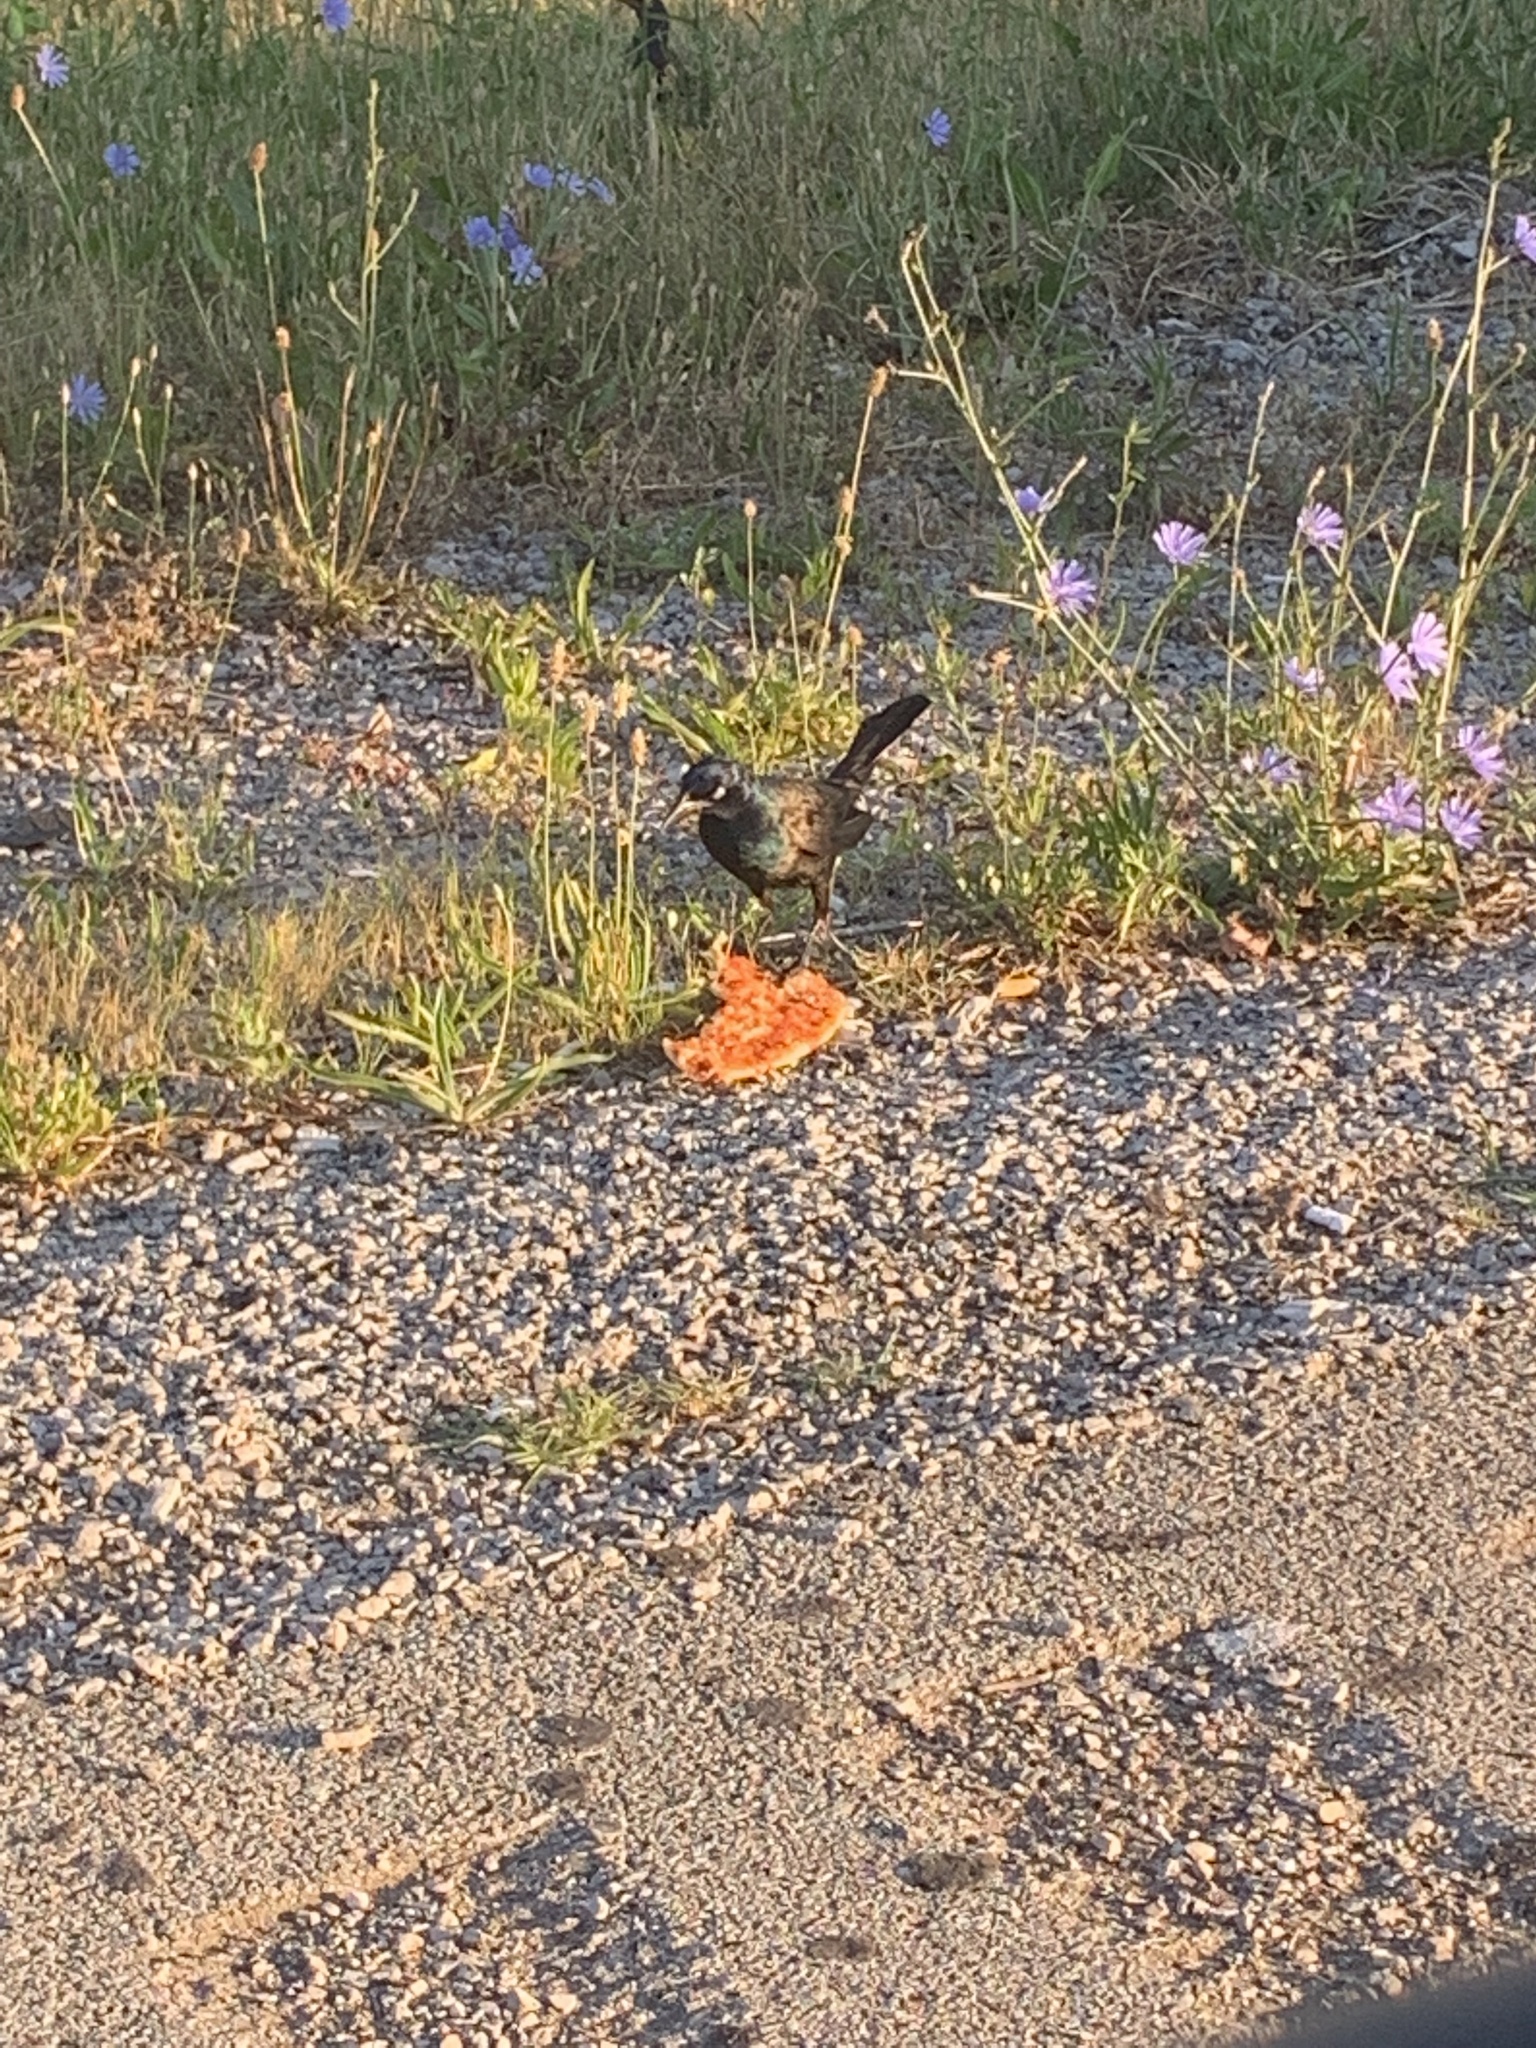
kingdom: Animalia
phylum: Chordata
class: Aves
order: Passeriformes
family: Icteridae
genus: Quiscalus
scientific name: Quiscalus quiscula
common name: Common grackle
